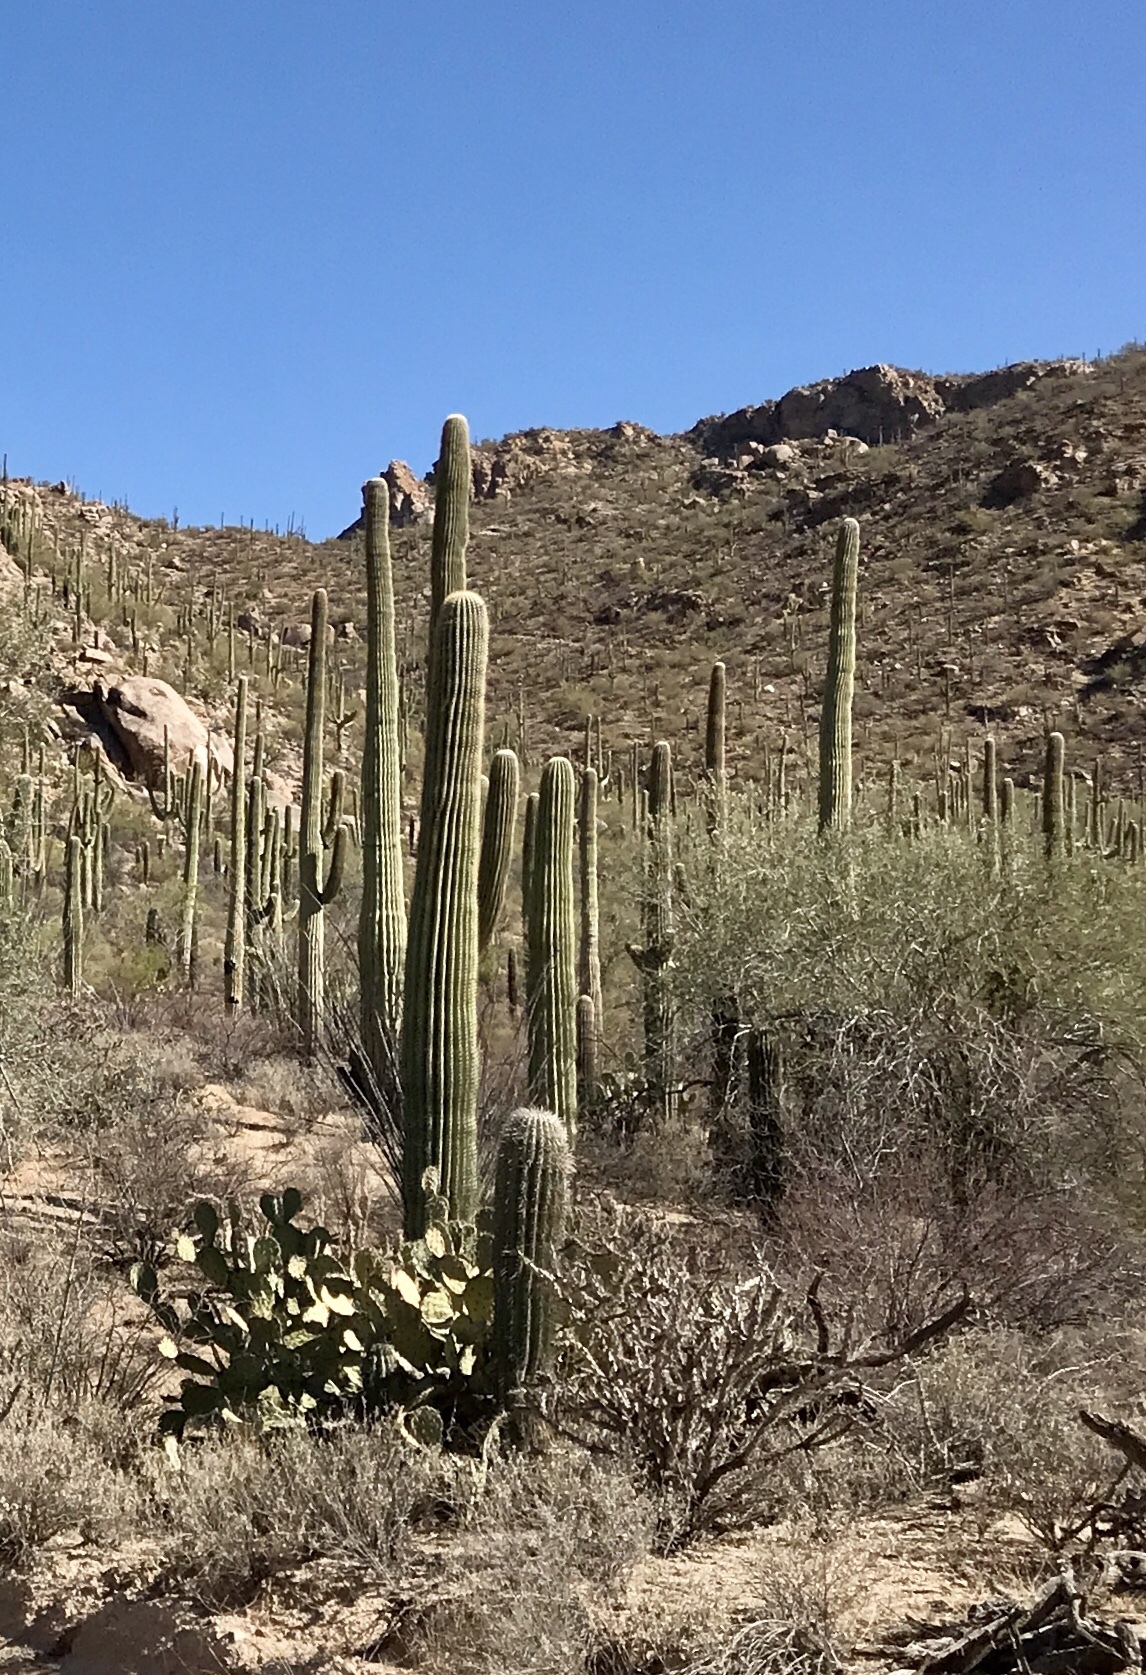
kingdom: Plantae
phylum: Tracheophyta
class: Magnoliopsida
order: Caryophyllales
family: Cactaceae
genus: Carnegiea
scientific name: Carnegiea gigantea
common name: Saguaro
